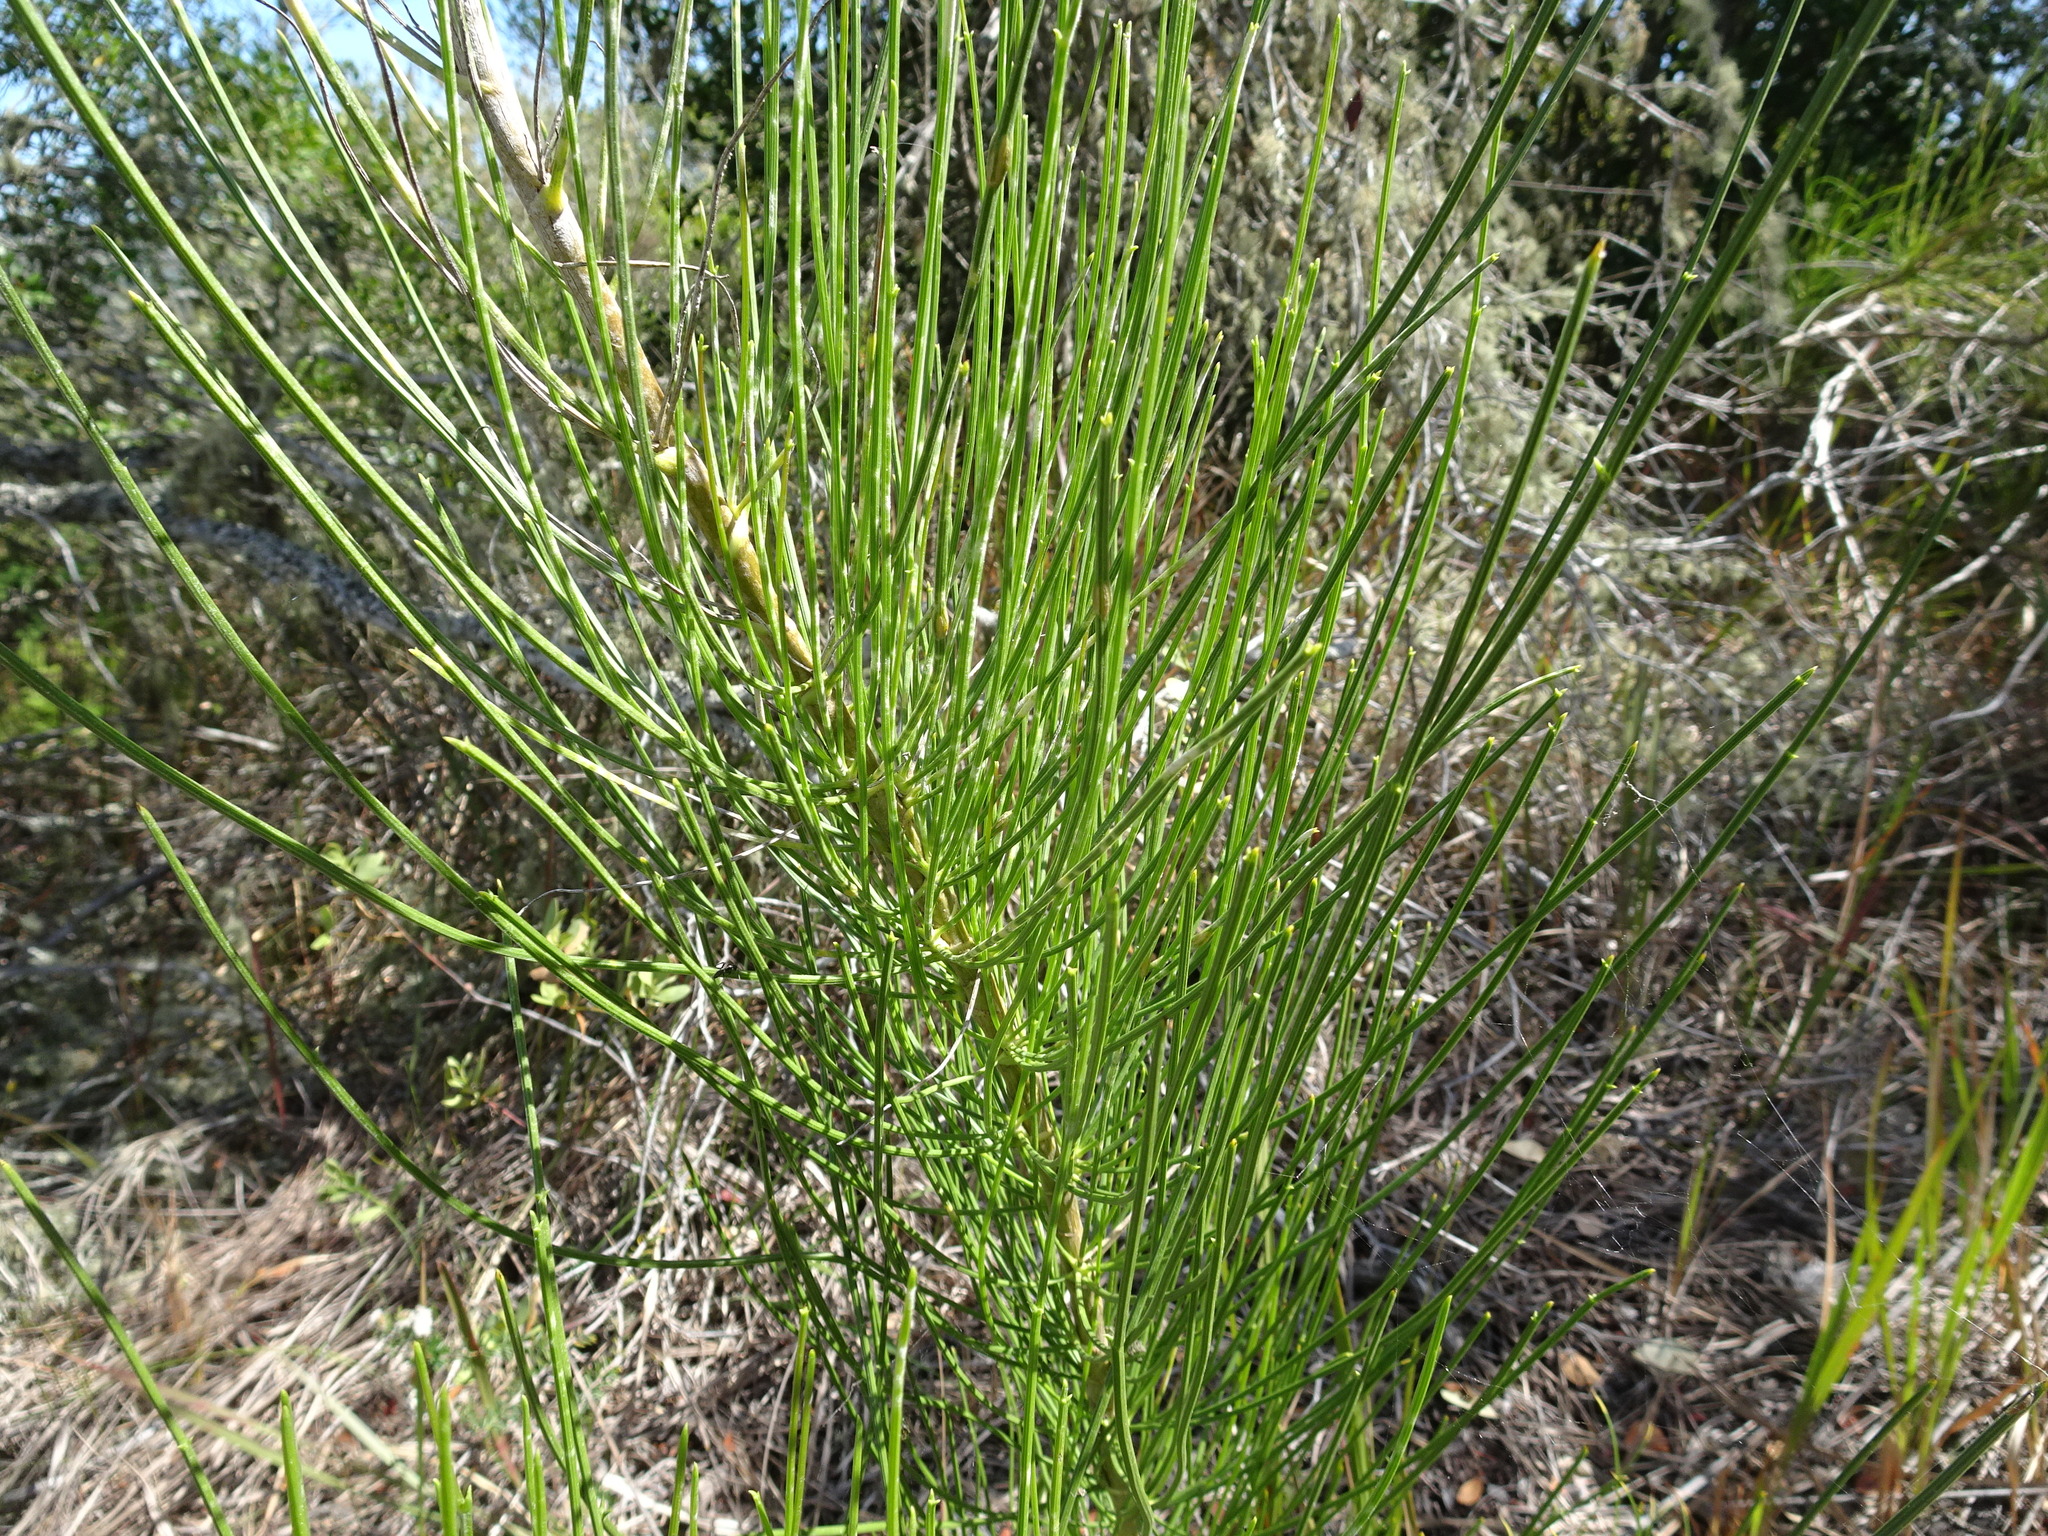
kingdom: Plantae
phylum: Tracheophyta
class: Magnoliopsida
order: Apiales
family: Apiaceae
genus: Anginon
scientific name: Anginon difforme
